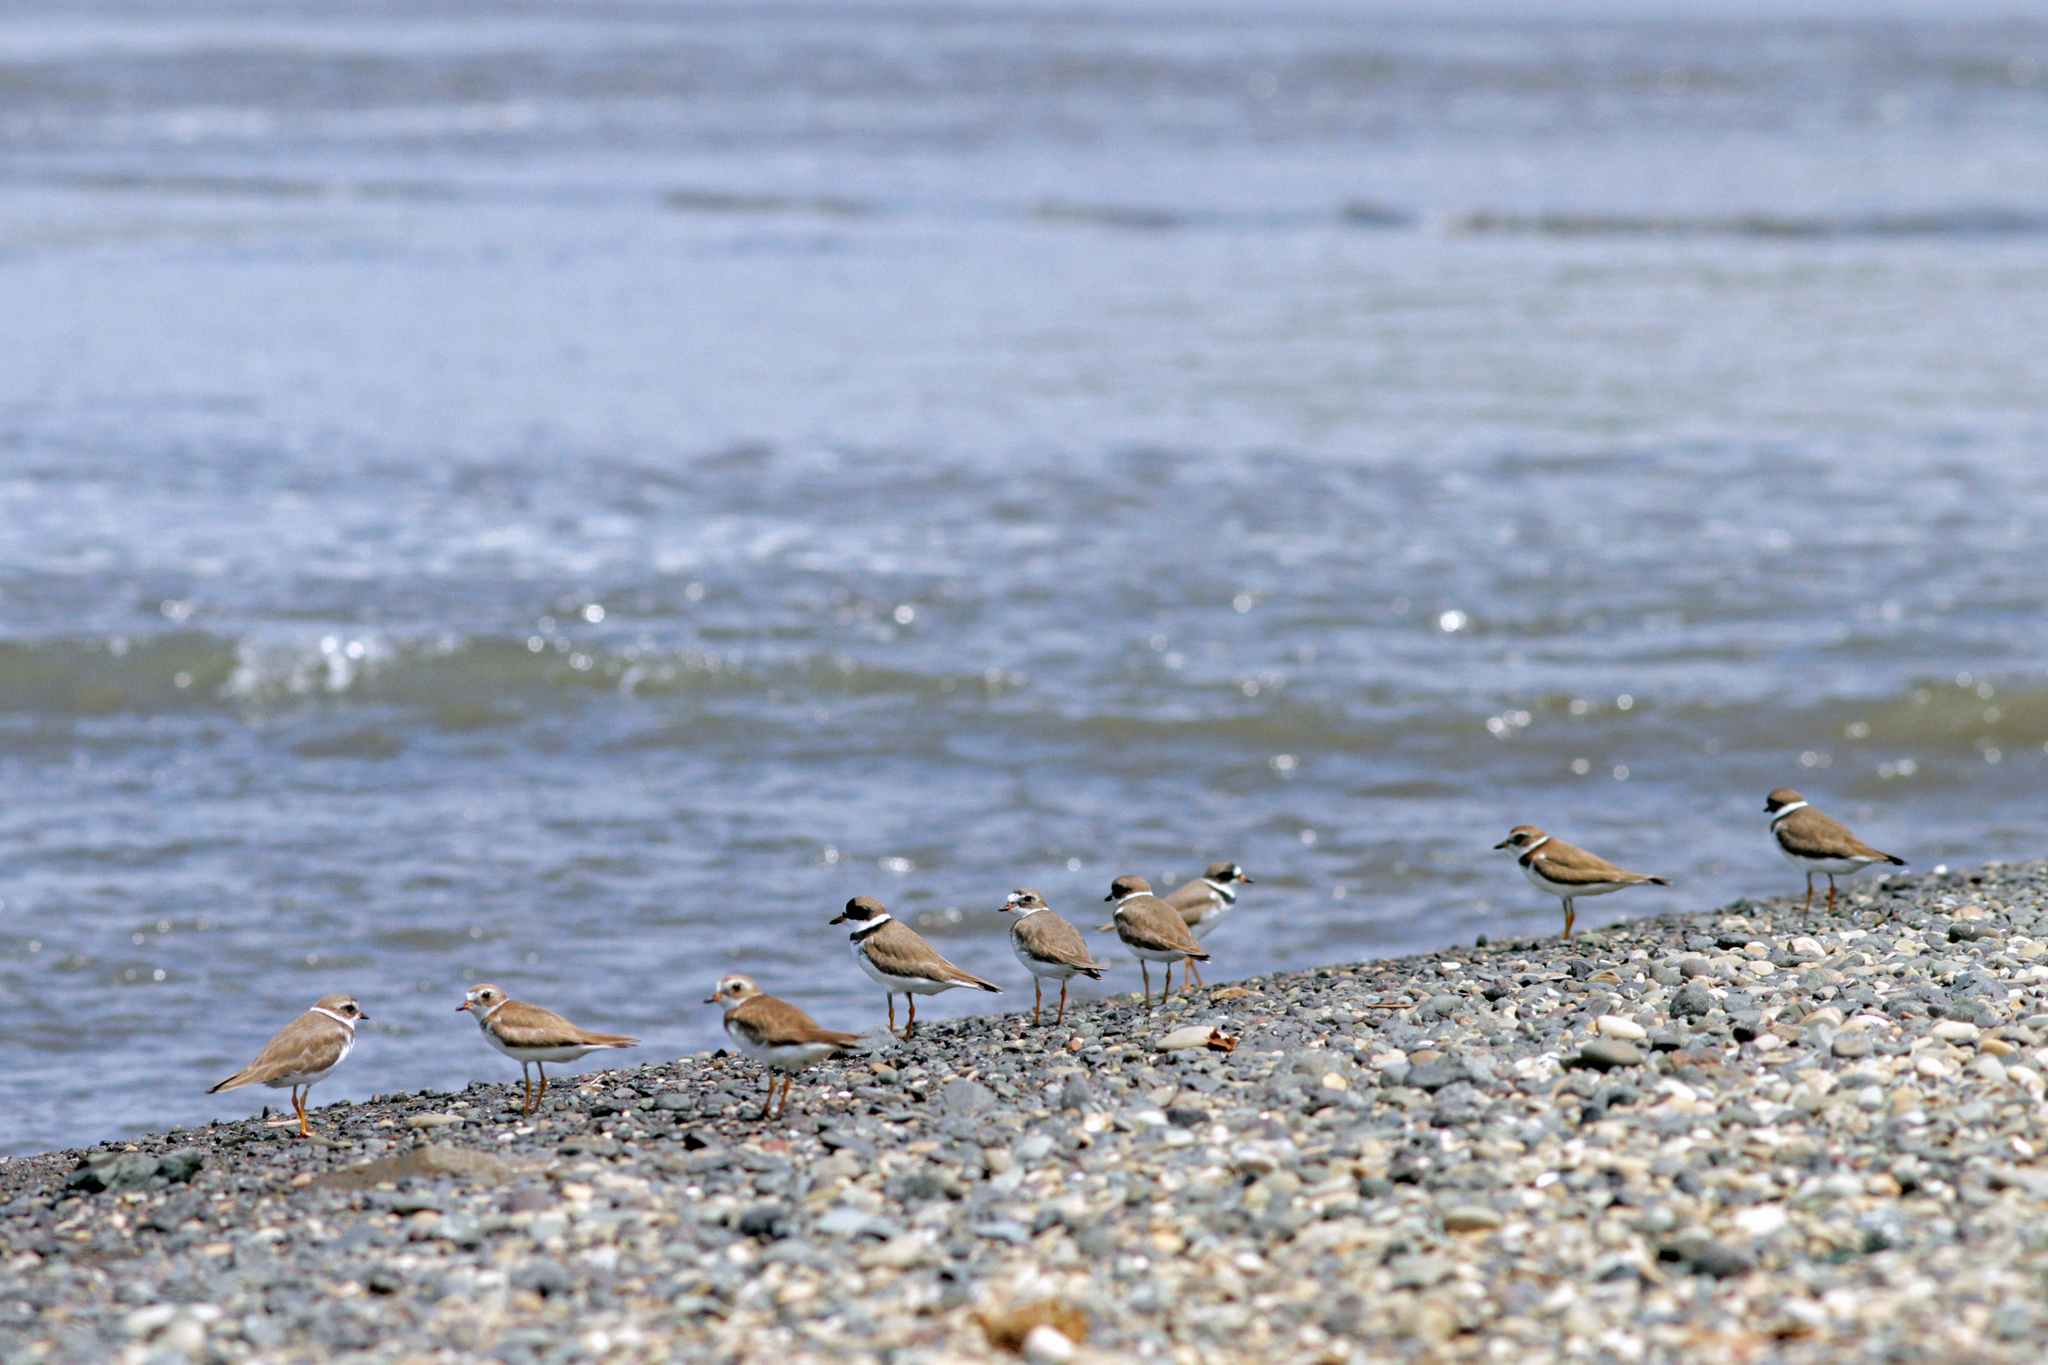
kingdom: Animalia
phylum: Chordata
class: Aves
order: Charadriiformes
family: Charadriidae
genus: Charadrius
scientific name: Charadrius semipalmatus
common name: Semipalmated plover
